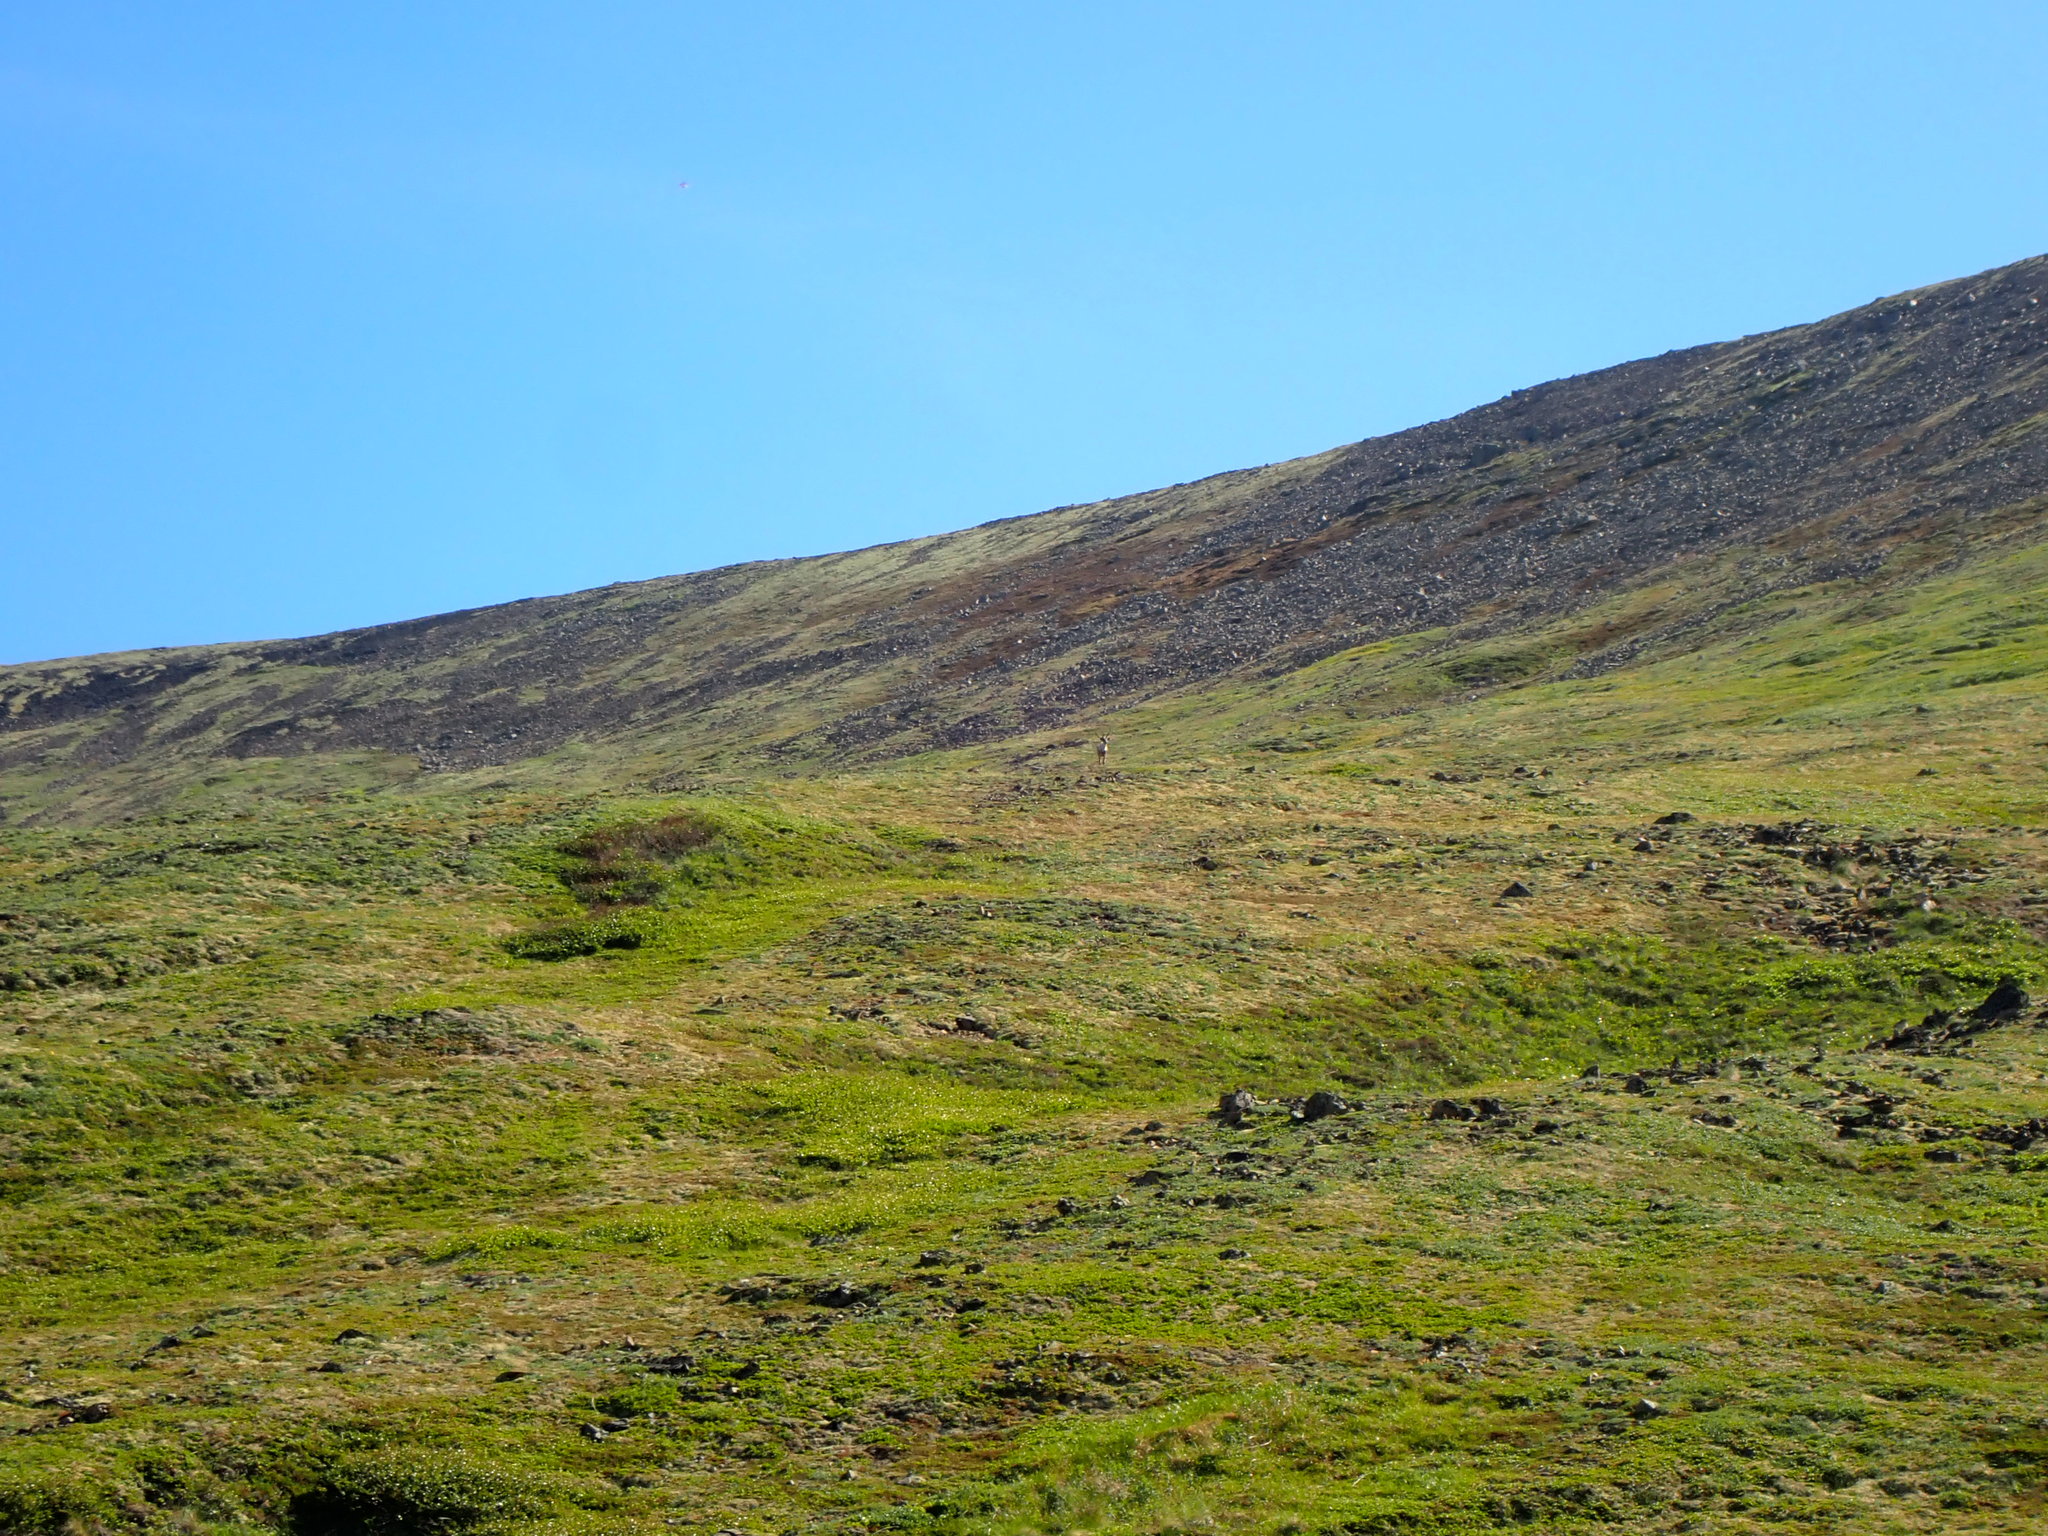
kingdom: Animalia
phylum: Chordata
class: Mammalia
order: Artiodactyla
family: Cervidae
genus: Rangifer
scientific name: Rangifer tarandus
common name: Reindeer
